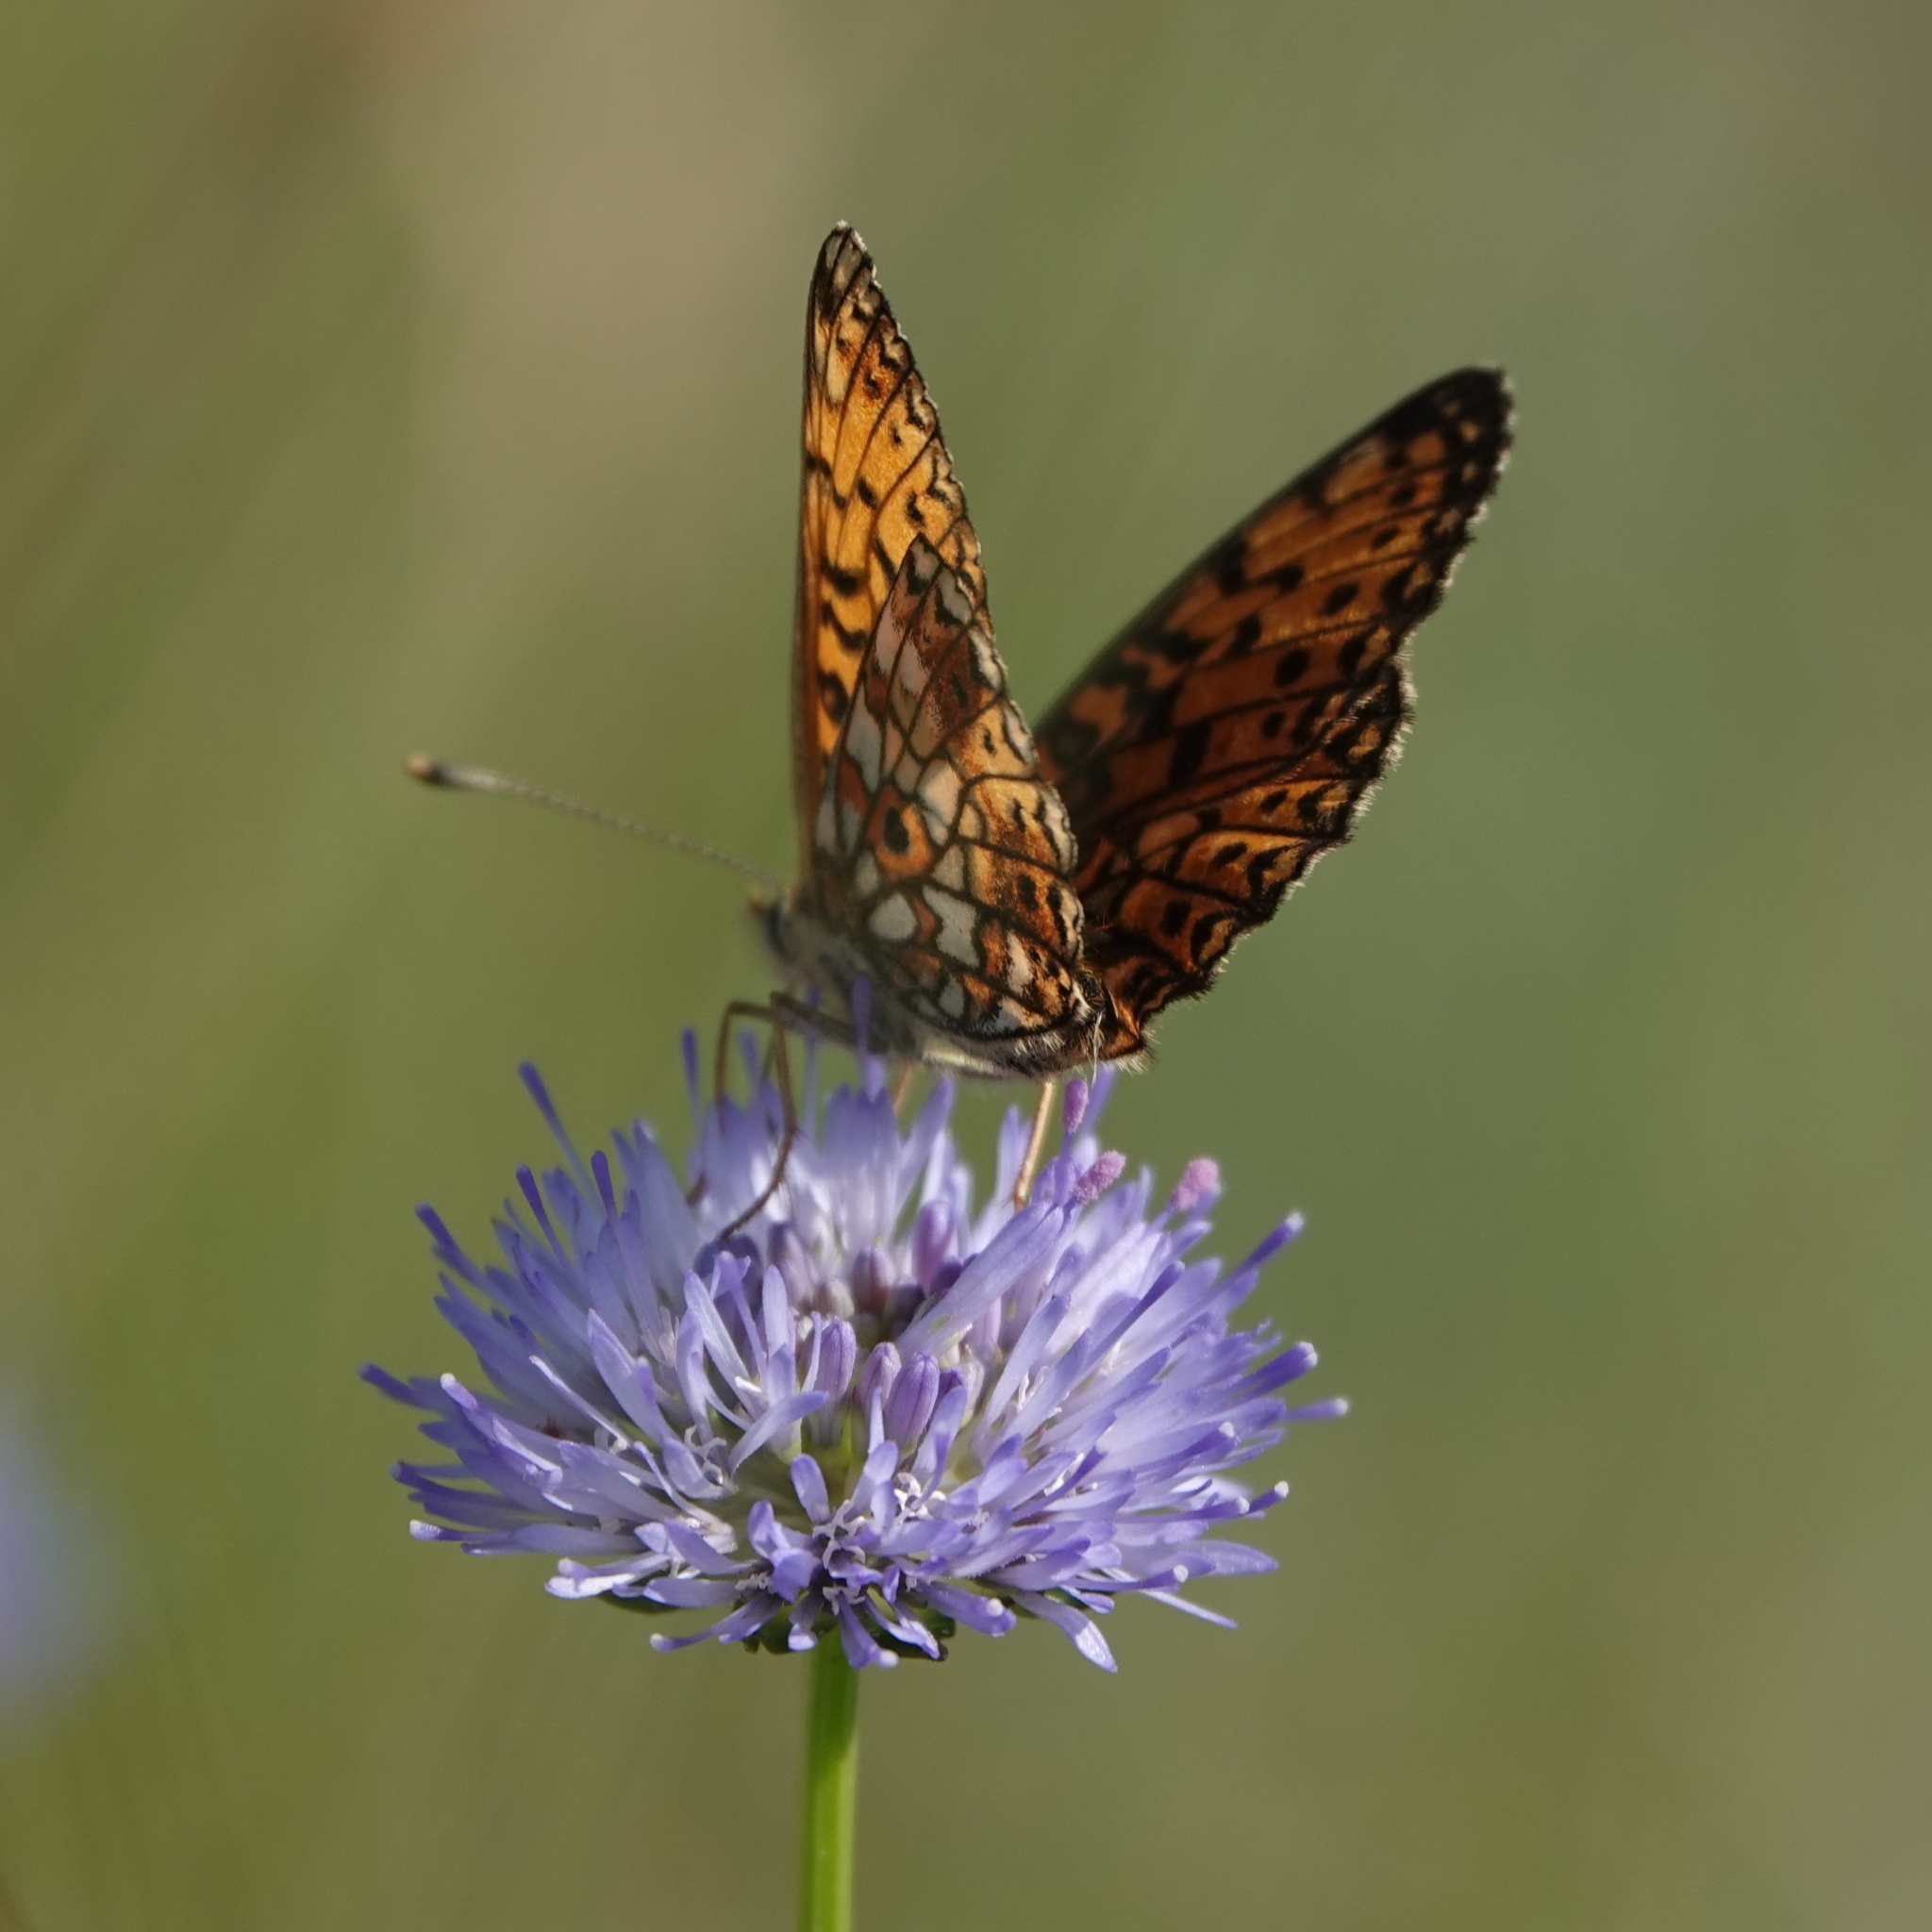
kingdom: Animalia
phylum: Arthropoda
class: Insecta
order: Lepidoptera
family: Nymphalidae
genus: Boloria
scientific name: Boloria selene
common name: Small pearl-bordered fritillary
